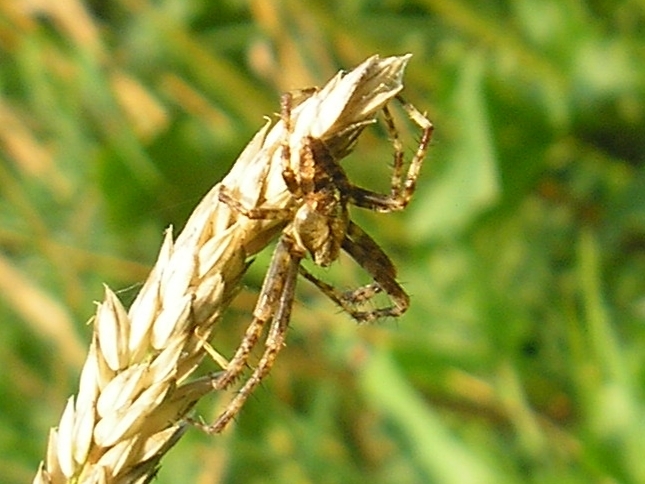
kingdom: Animalia
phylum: Arthropoda
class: Arachnida
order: Araneae
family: Araneidae
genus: Araneus
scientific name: Araneus diadematus
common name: Cross orbweaver
